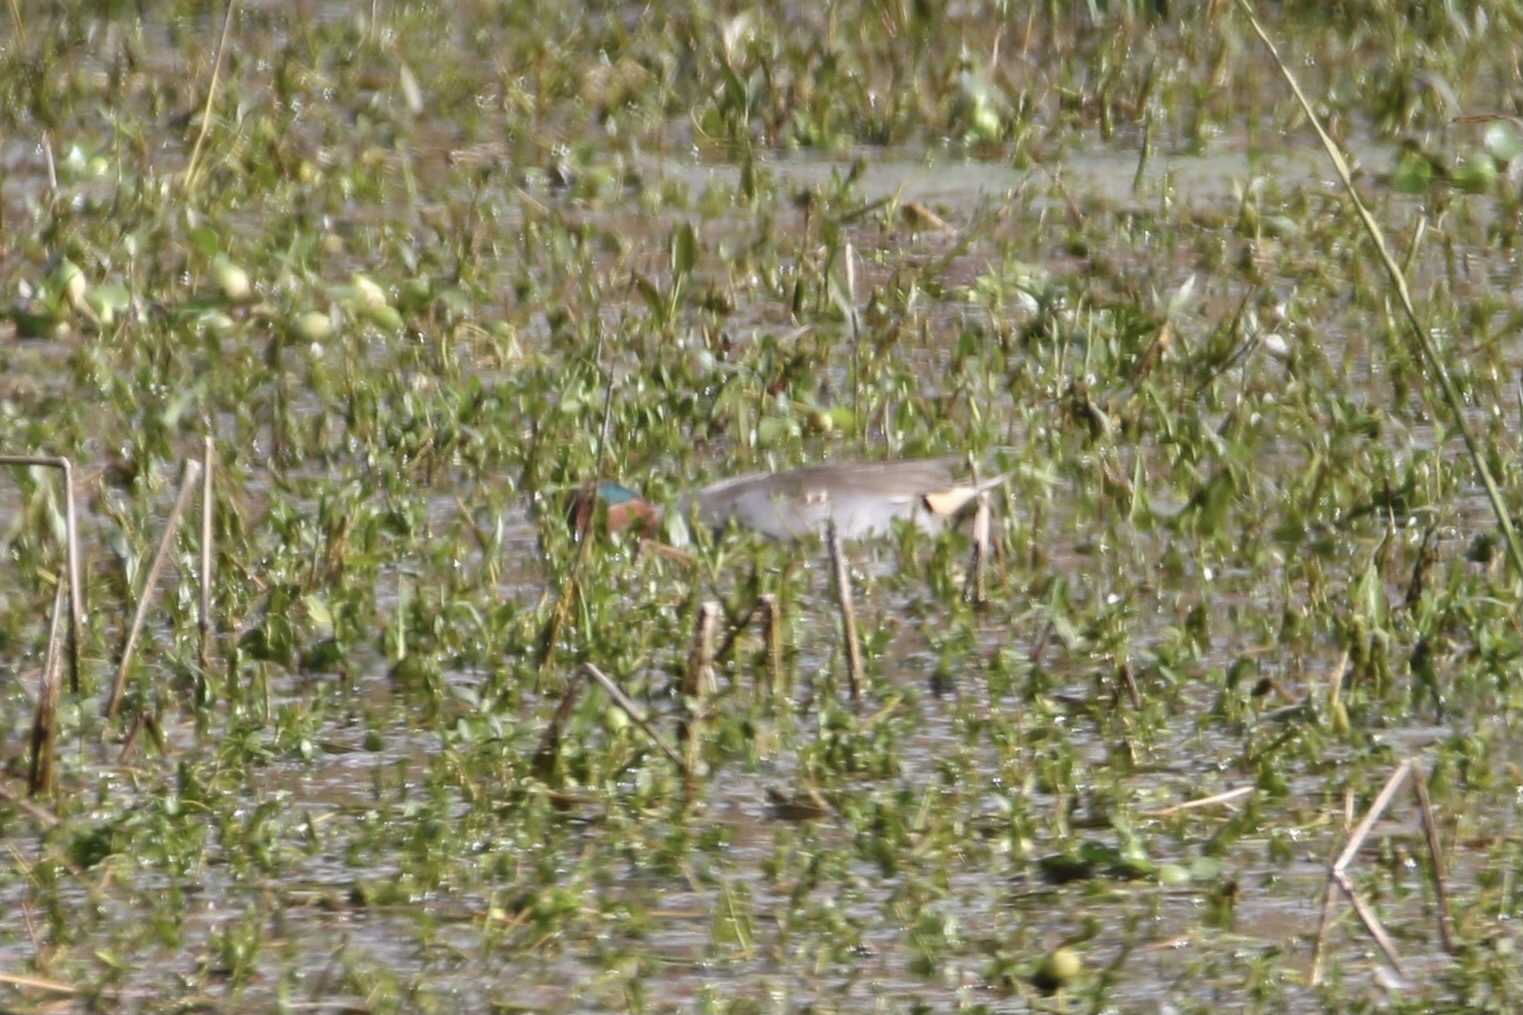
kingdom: Animalia
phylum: Chordata
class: Aves
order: Anseriformes
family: Anatidae
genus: Anas
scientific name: Anas crecca
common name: Eurasian teal
